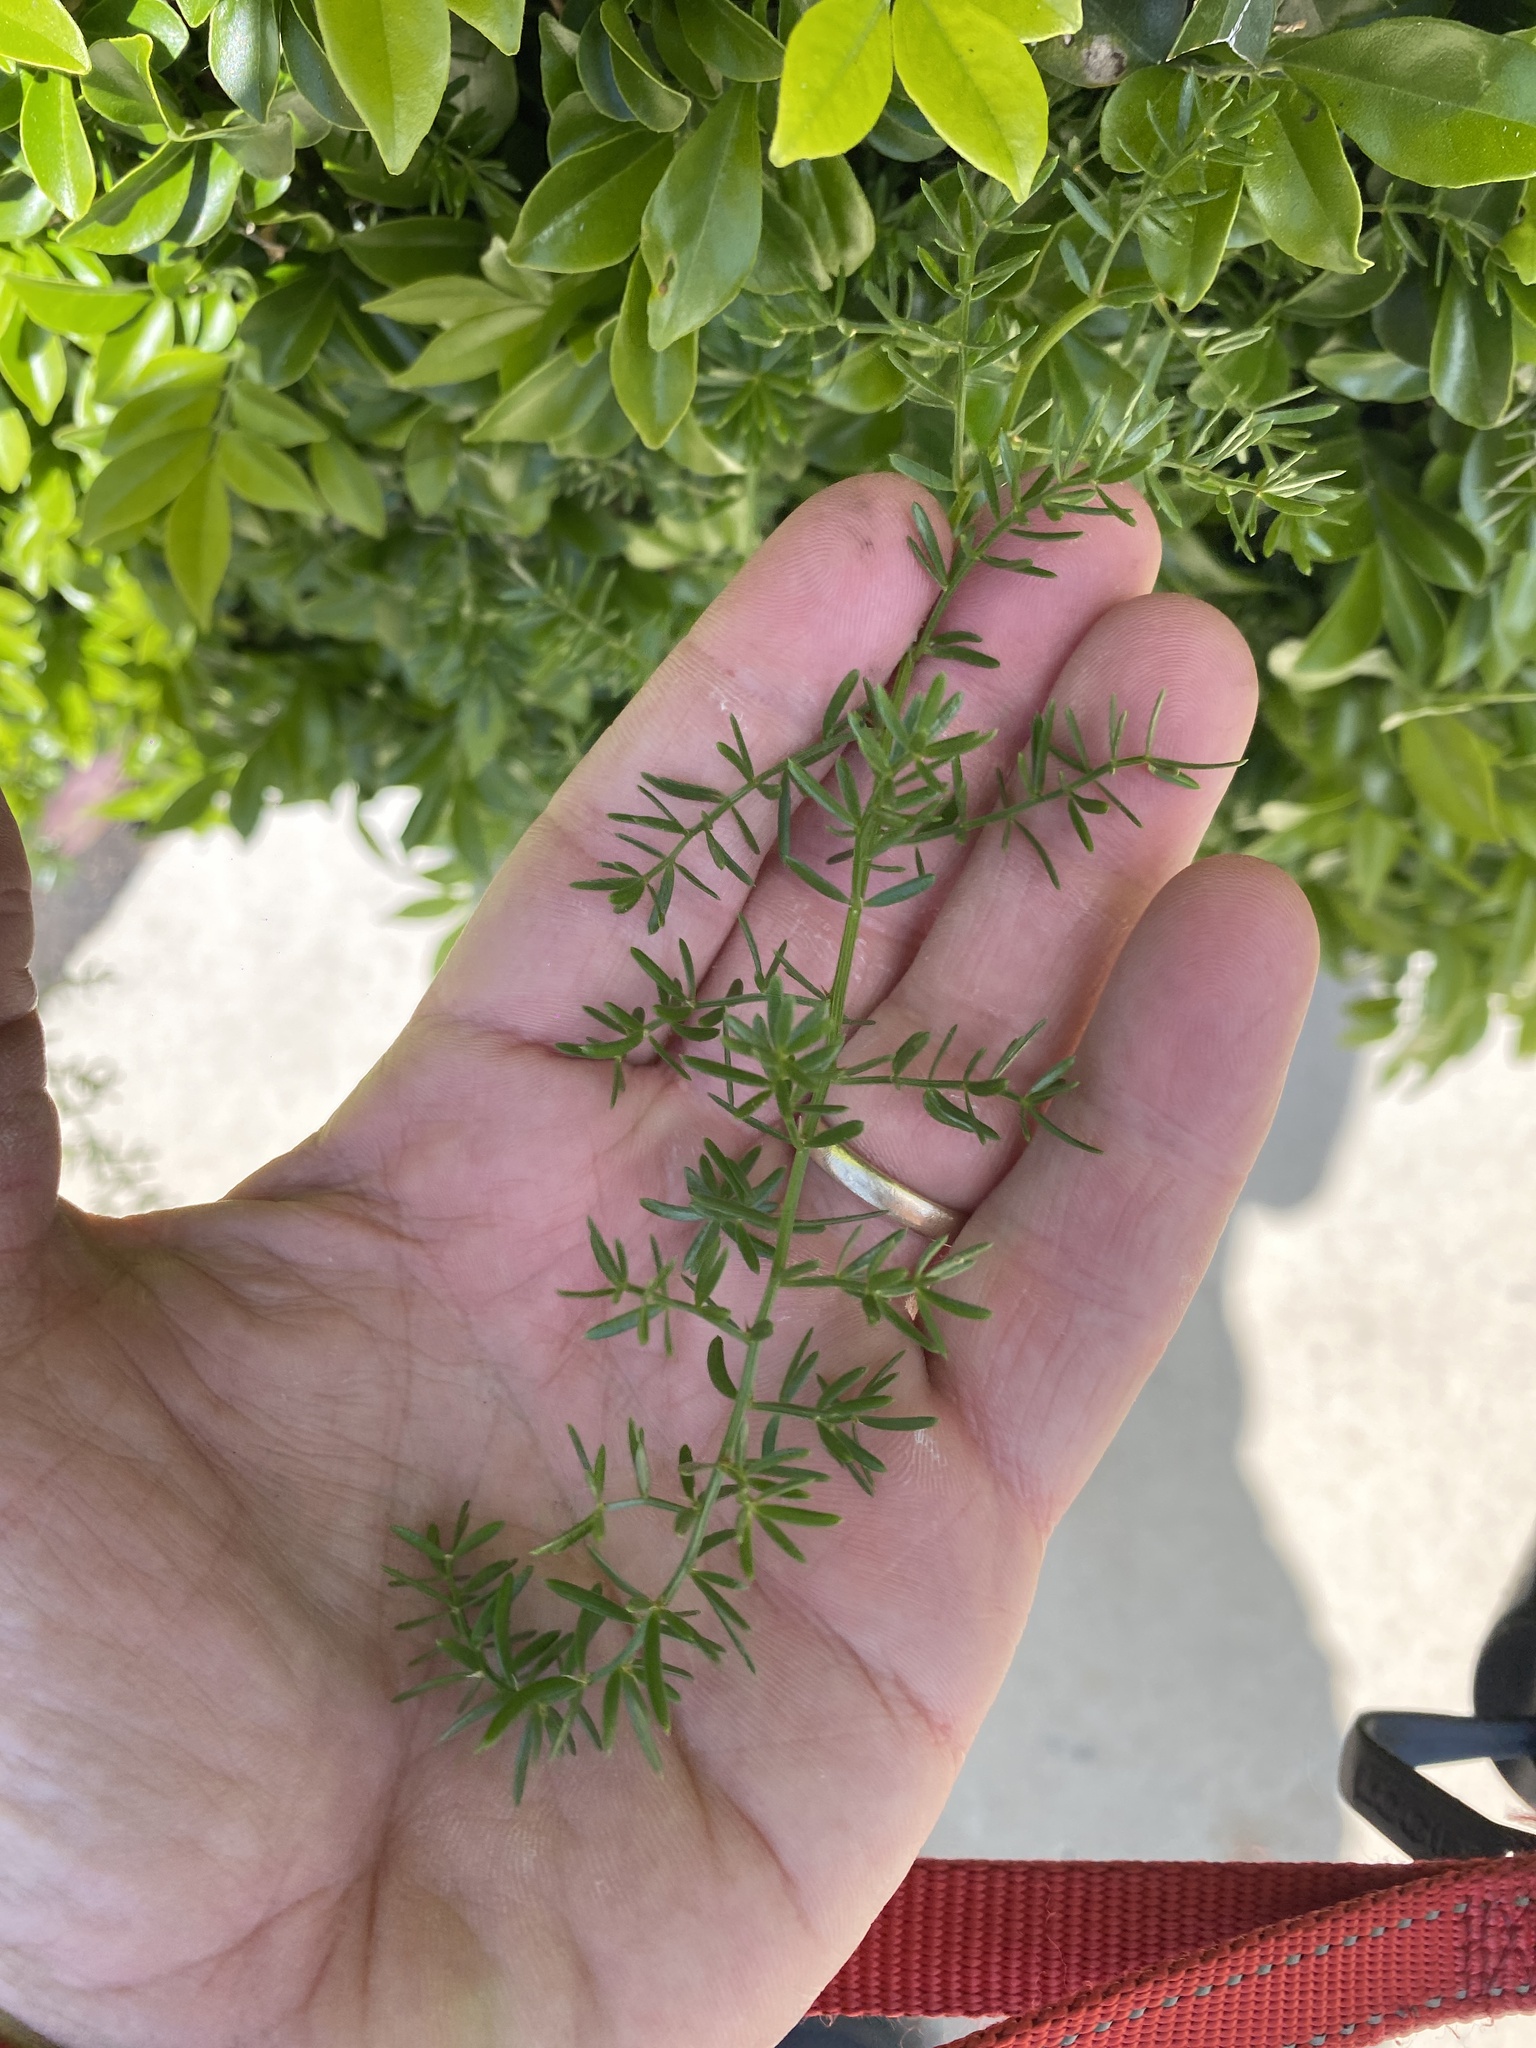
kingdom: Plantae
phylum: Tracheophyta
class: Liliopsida
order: Asparagales
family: Asparagaceae
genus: Asparagus
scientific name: Asparagus aethiopicus
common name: Sprenger's asparagus fern
